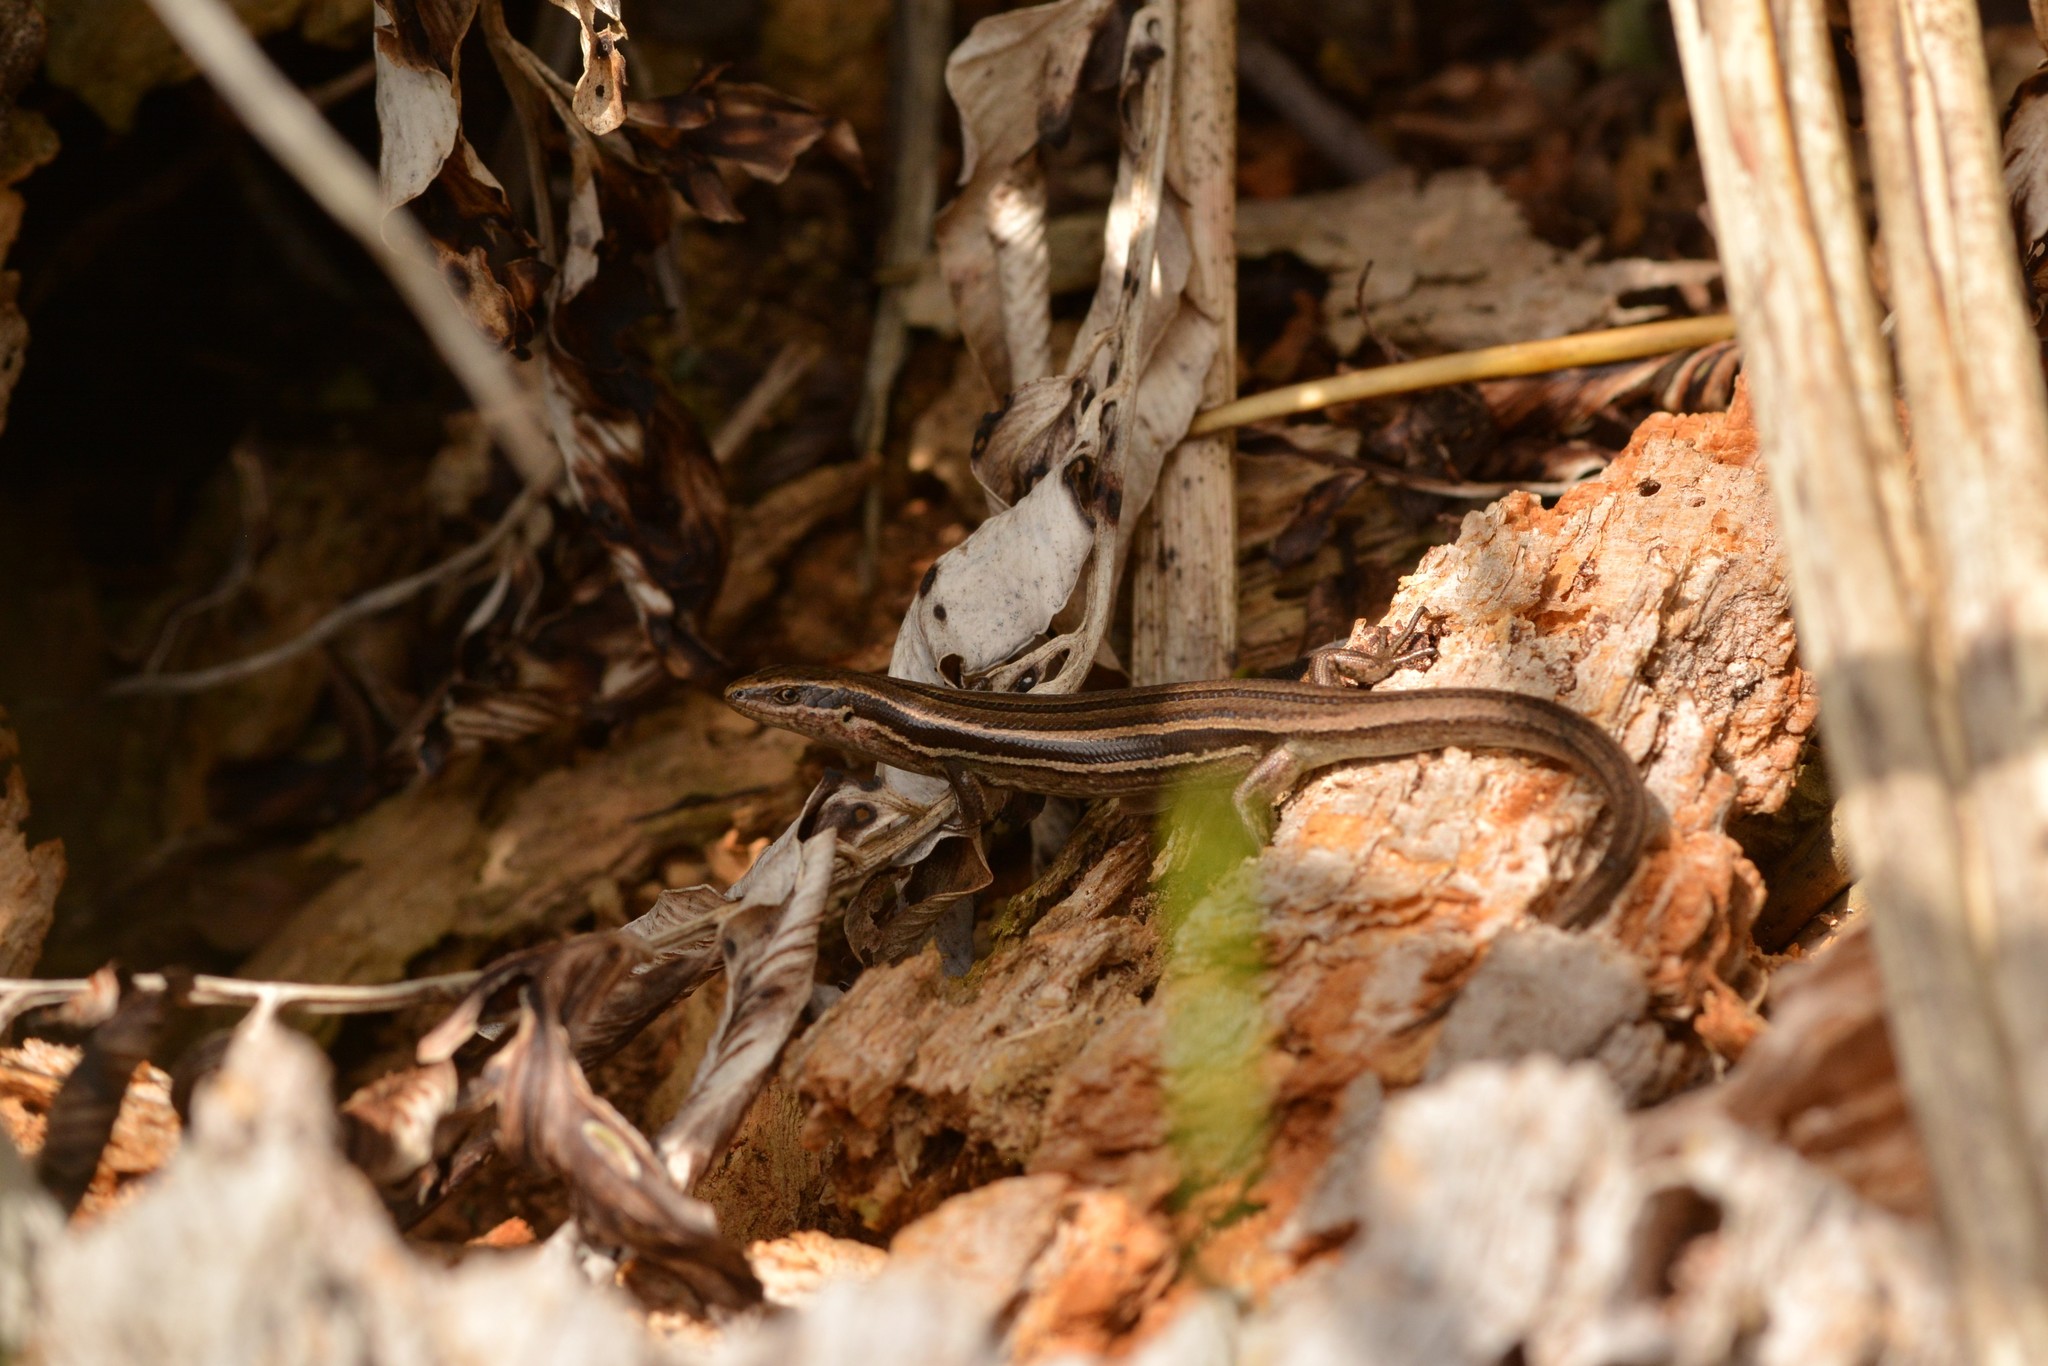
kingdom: Animalia
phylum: Chordata
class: Squamata
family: Scincidae
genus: Oligosoma
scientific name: Oligosoma polychroma
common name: Common new zealand skink
